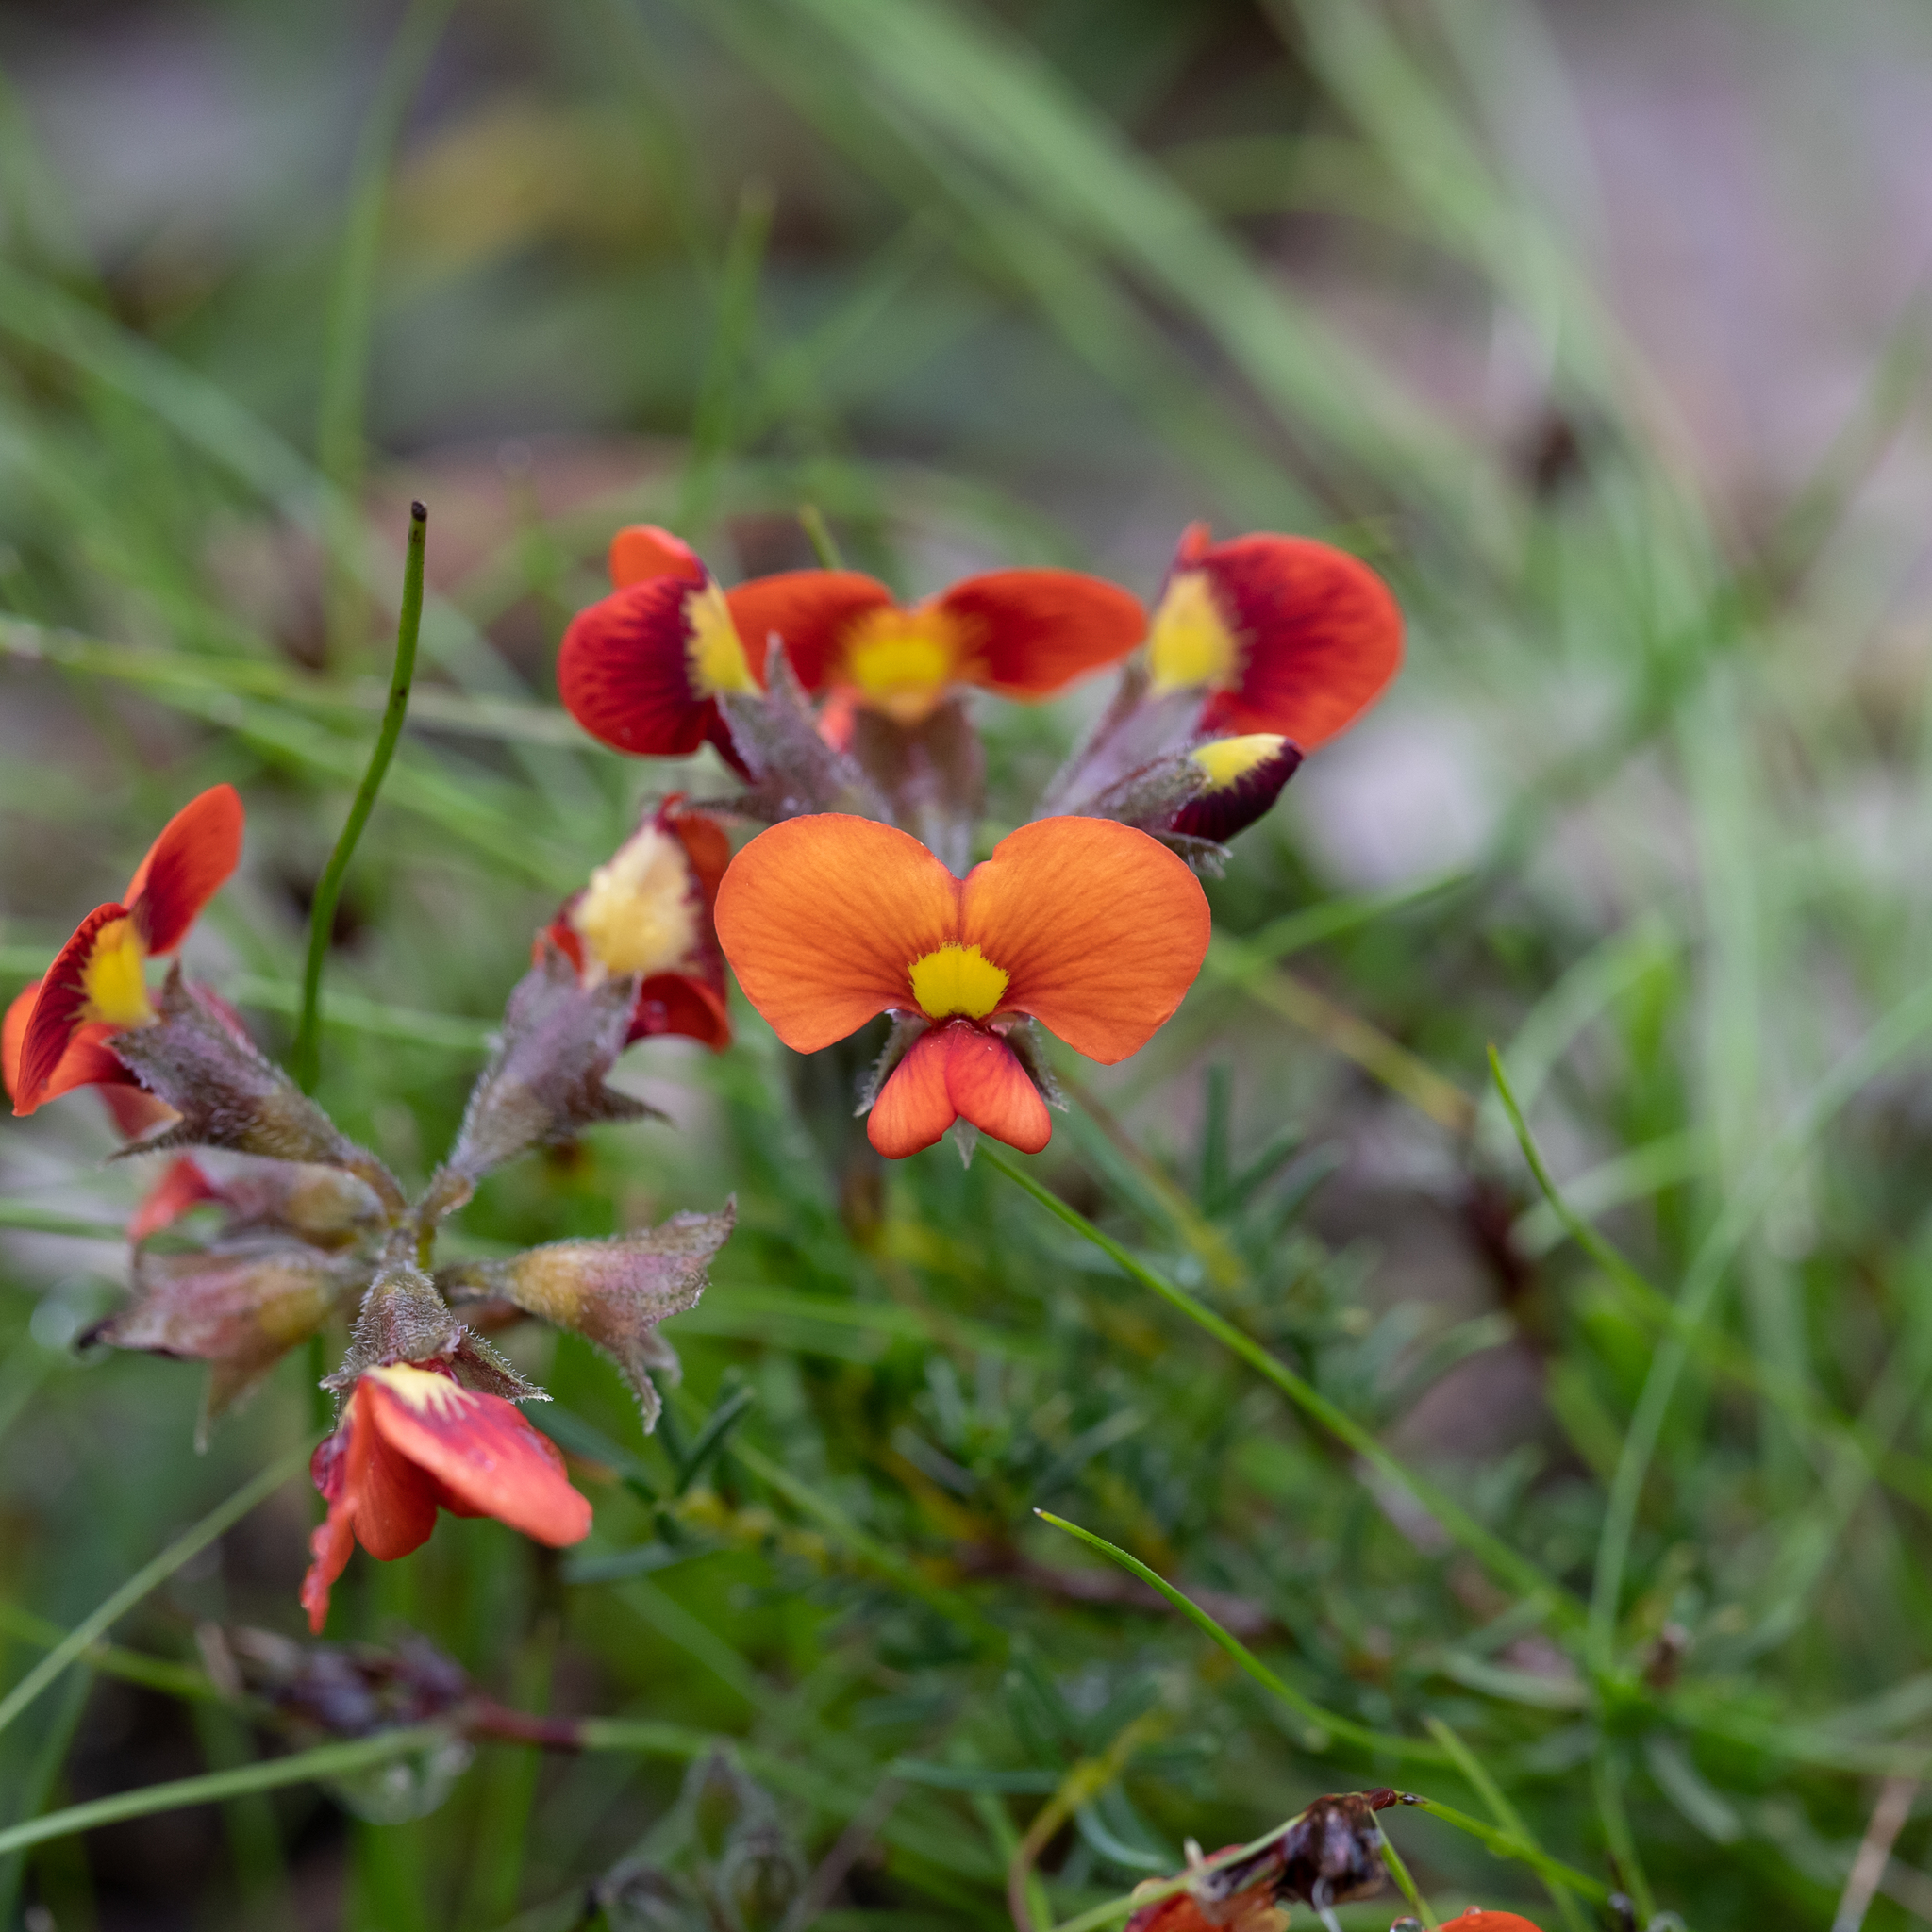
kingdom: Plantae
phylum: Tracheophyta
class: Magnoliopsida
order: Fabales
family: Fabaceae
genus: Dillwynia
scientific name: Dillwynia hispida
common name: Red parrot-pea
